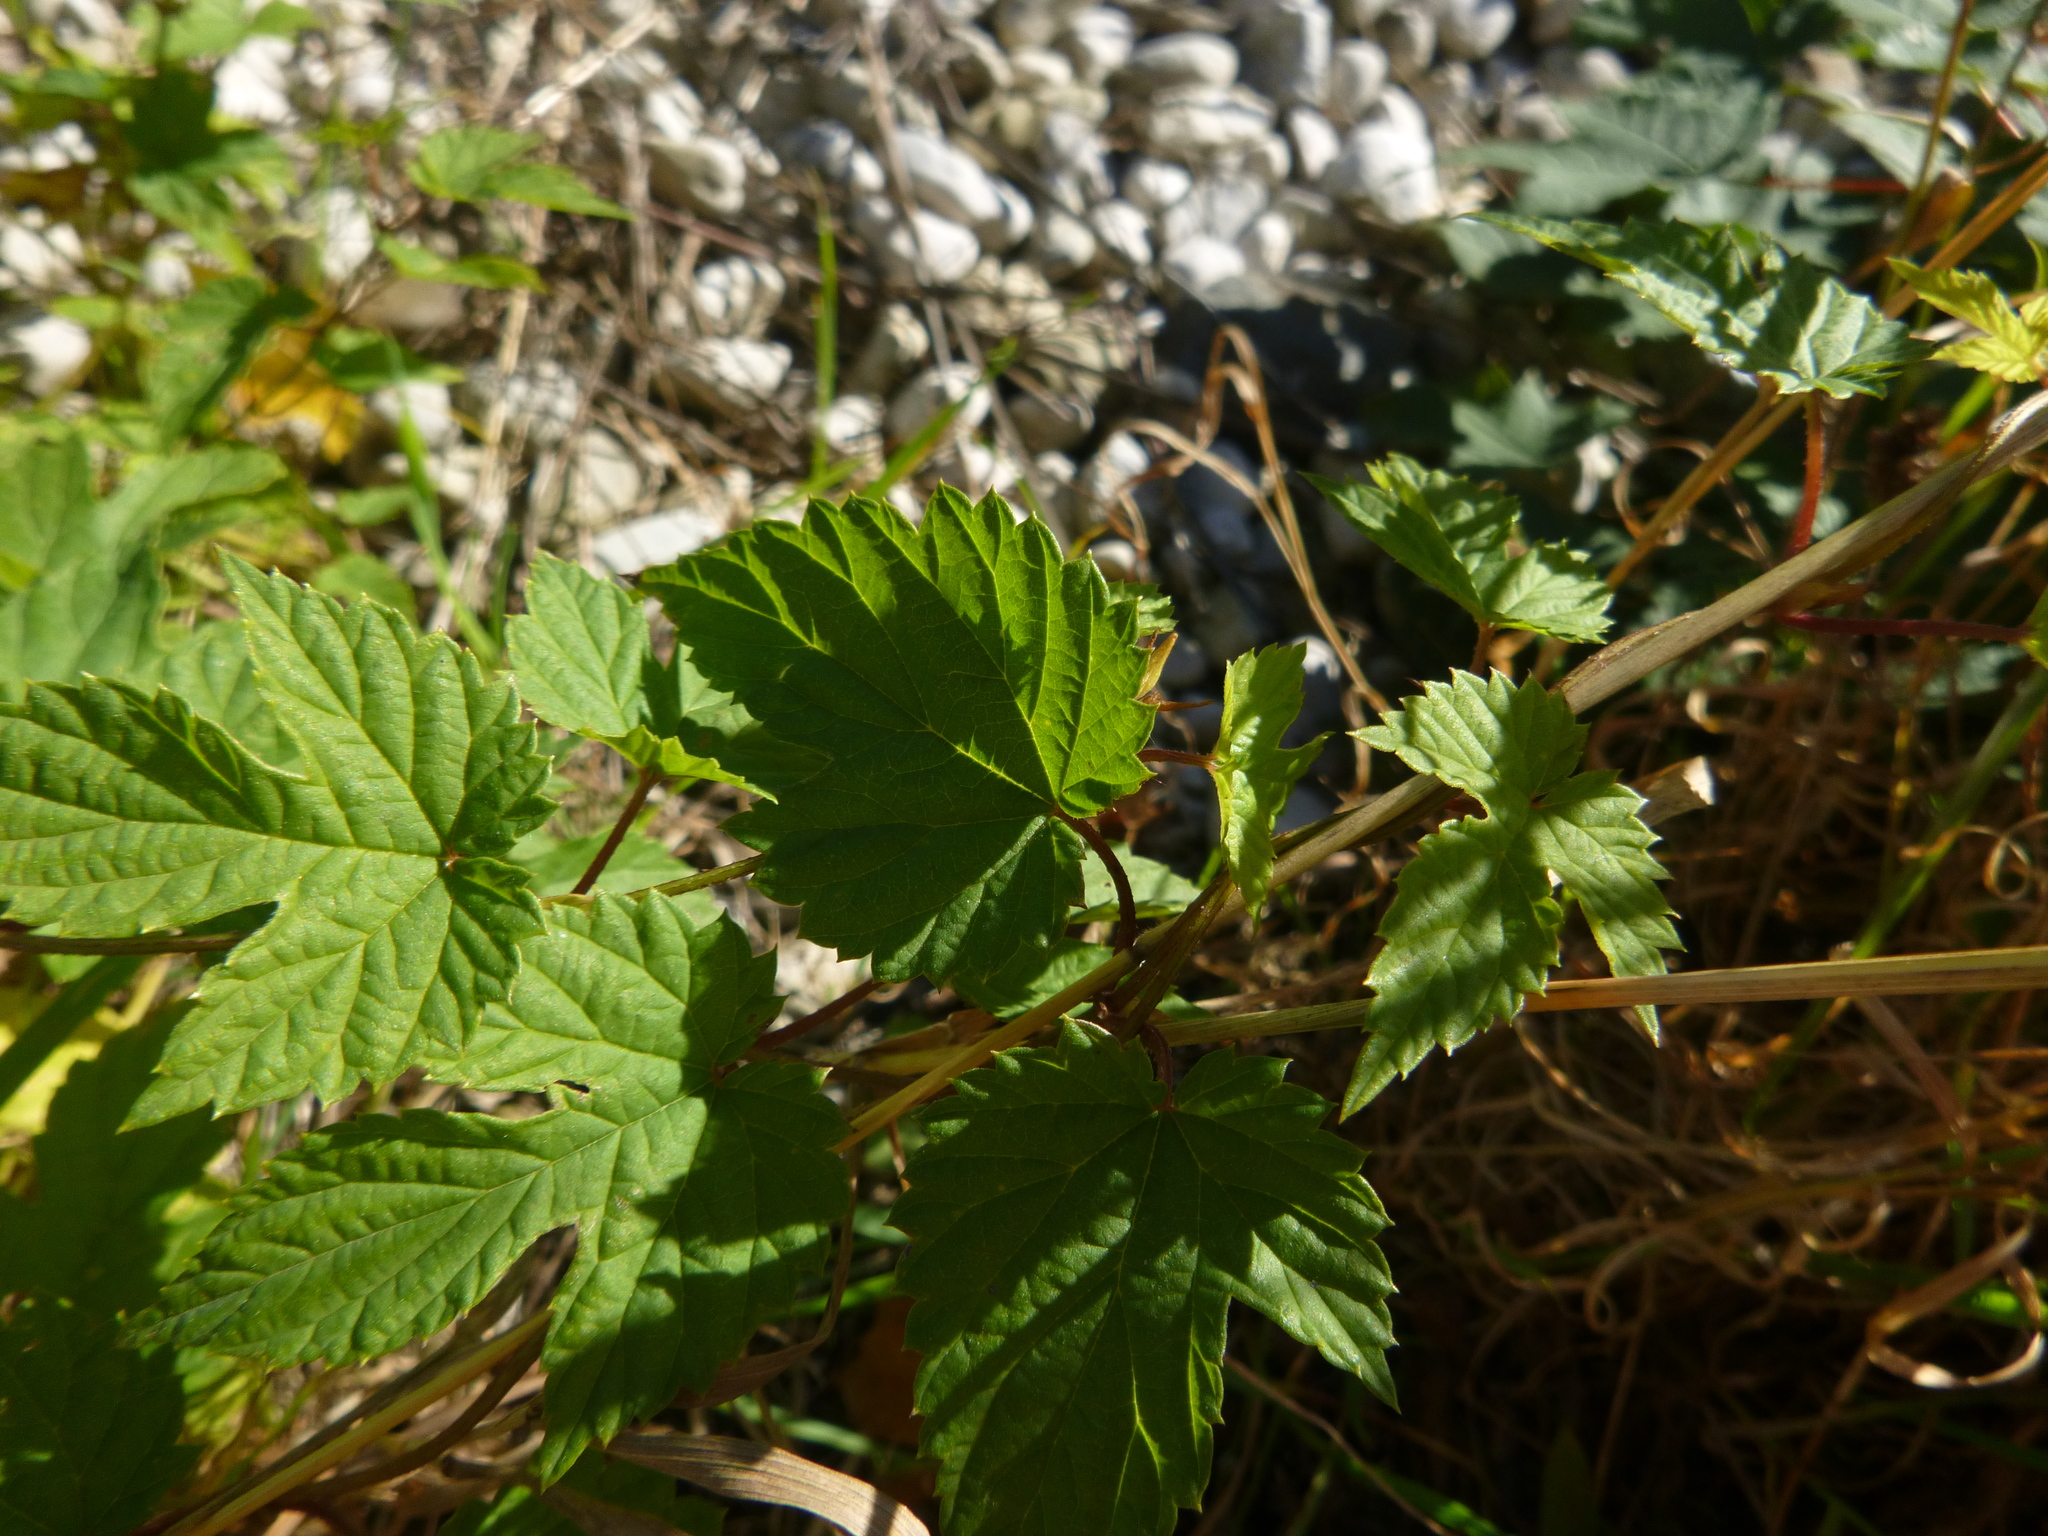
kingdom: Plantae
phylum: Tracheophyta
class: Magnoliopsida
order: Rosales
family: Cannabaceae
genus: Humulus
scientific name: Humulus lupulus
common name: Hop
